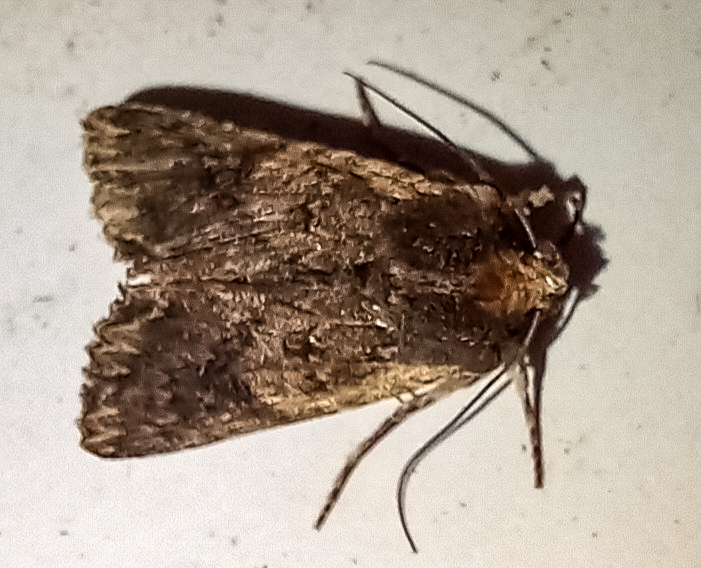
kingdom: Animalia
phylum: Arthropoda
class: Insecta
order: Lepidoptera
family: Noctuidae
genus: Meterana
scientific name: Meterana alcyone
